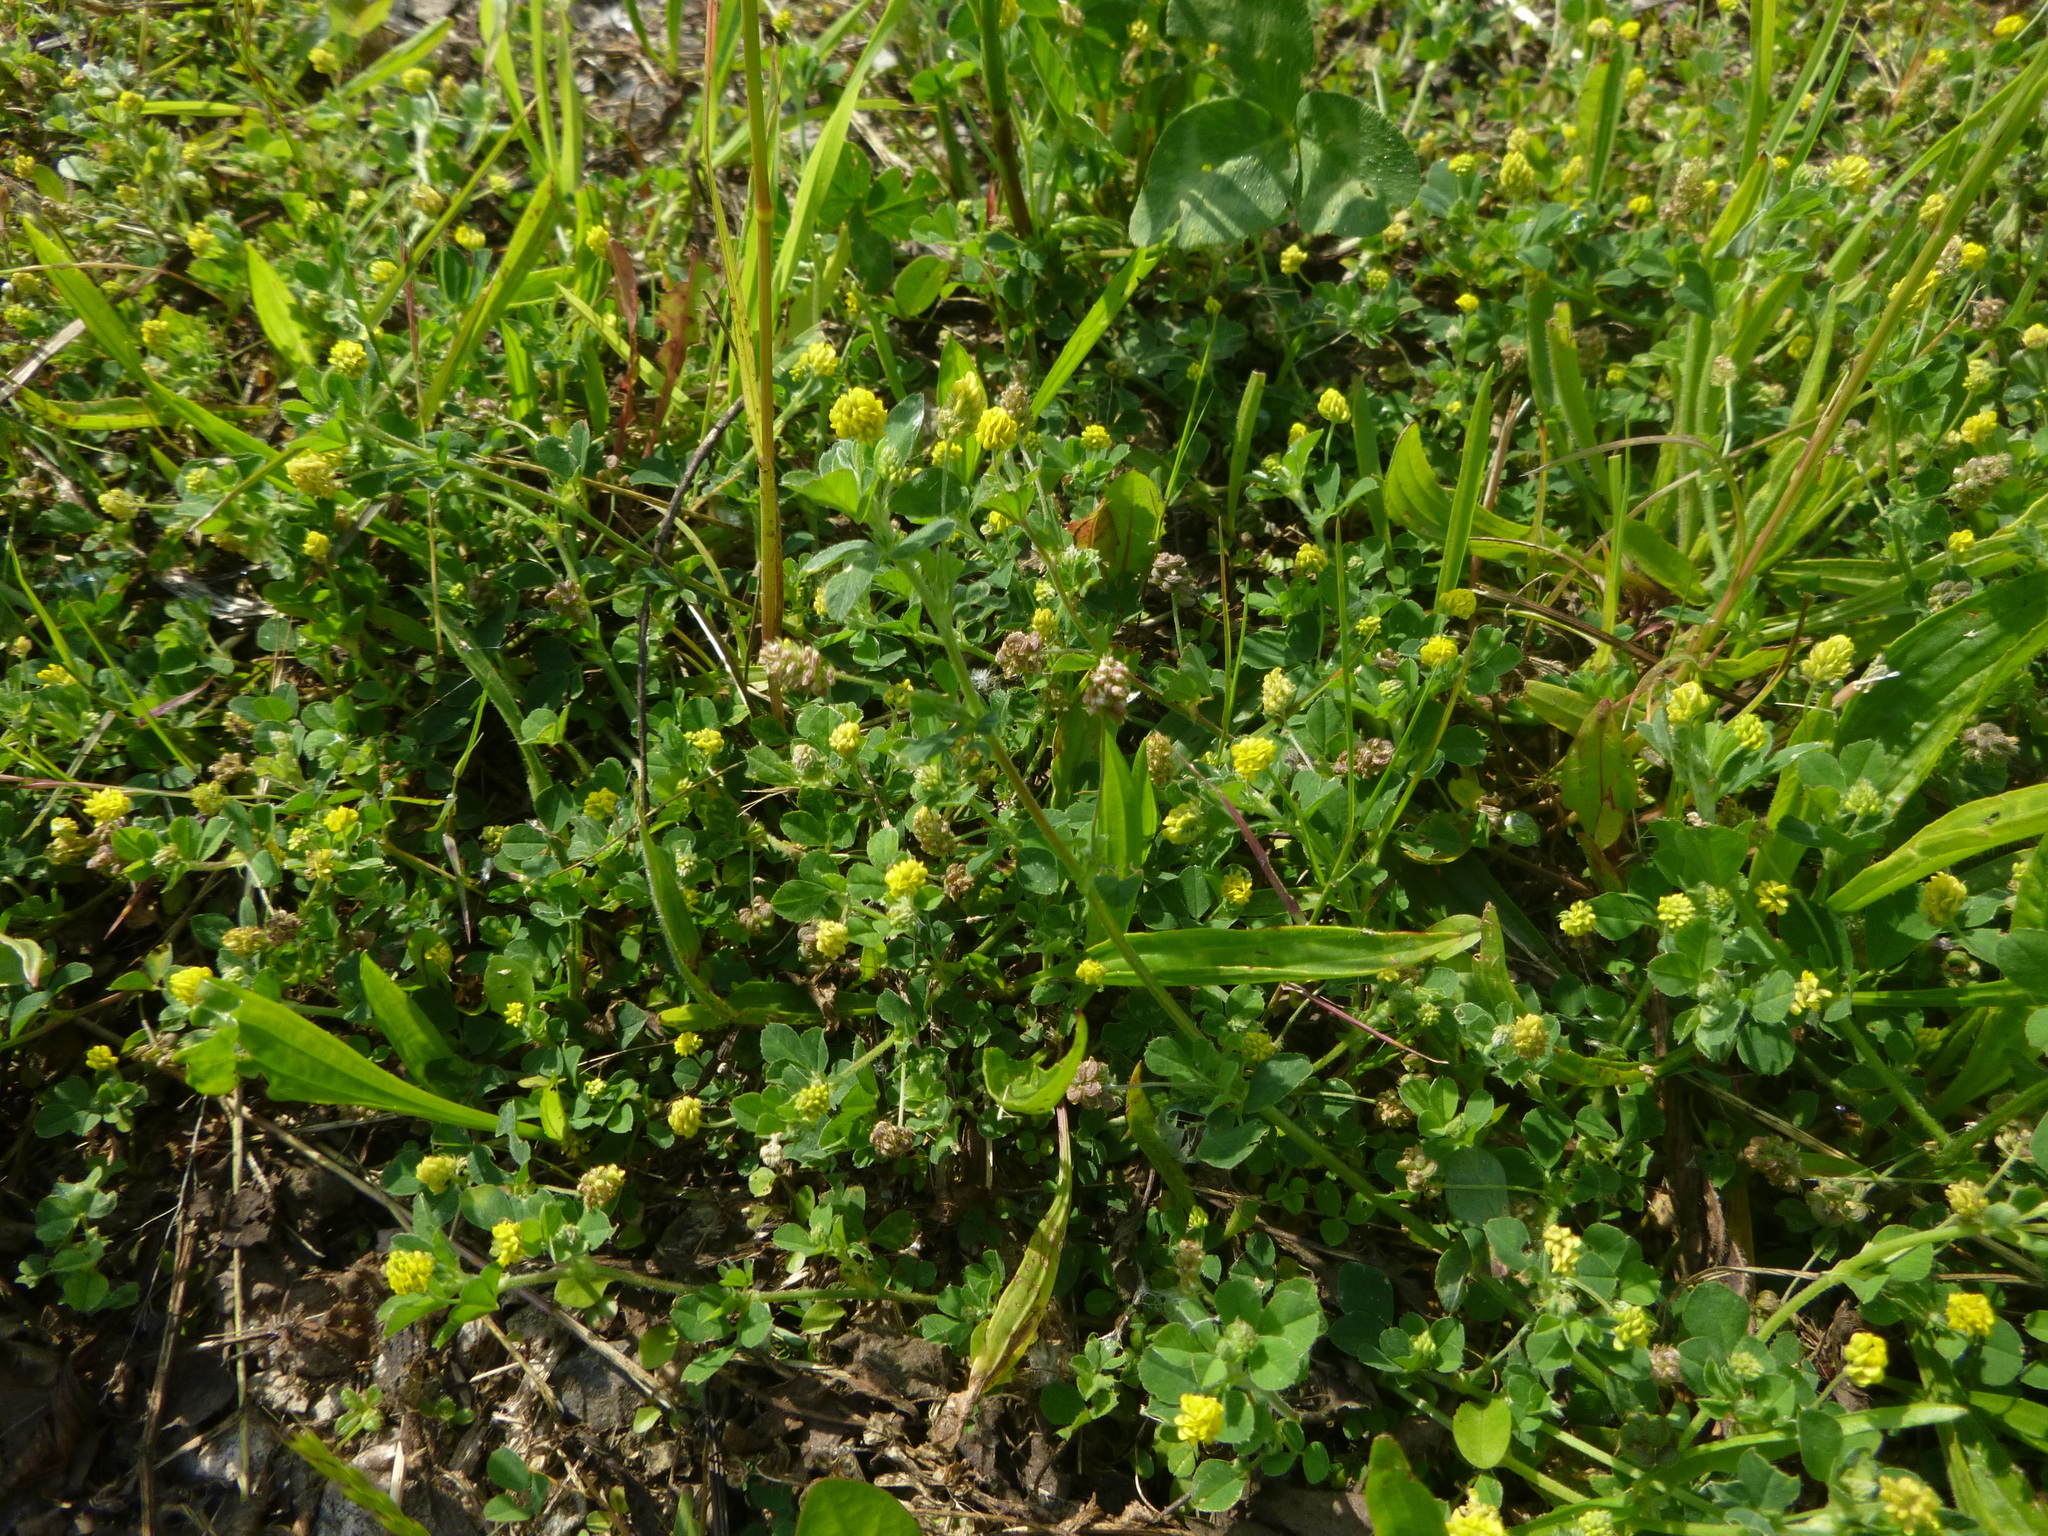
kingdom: Plantae
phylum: Tracheophyta
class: Magnoliopsida
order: Fabales
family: Fabaceae
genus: Medicago
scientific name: Medicago lupulina
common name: Black medick
